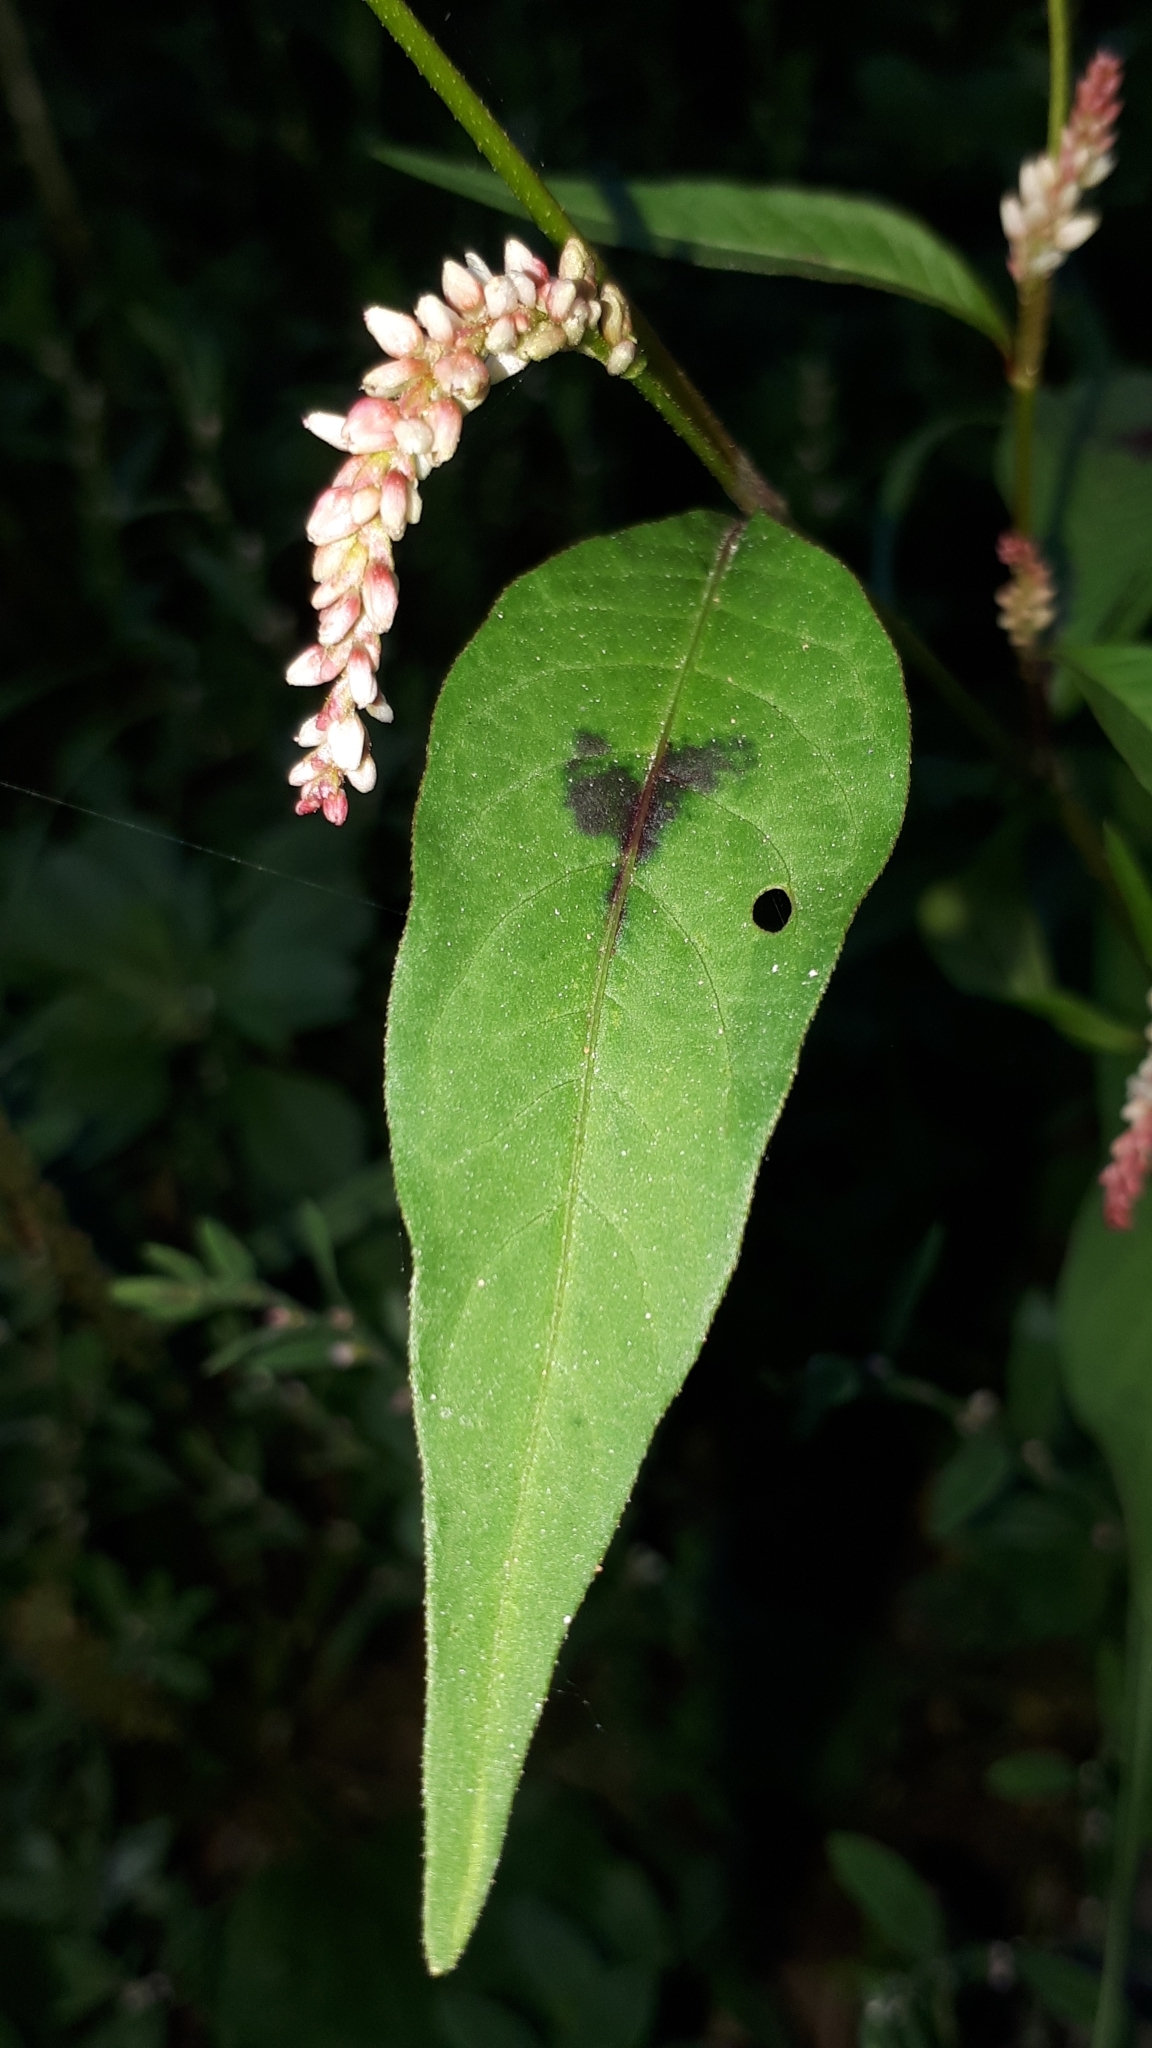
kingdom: Plantae
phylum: Tracheophyta
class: Magnoliopsida
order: Caryophyllales
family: Polygonaceae
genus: Persicaria
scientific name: Persicaria maculosa
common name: Redshank
